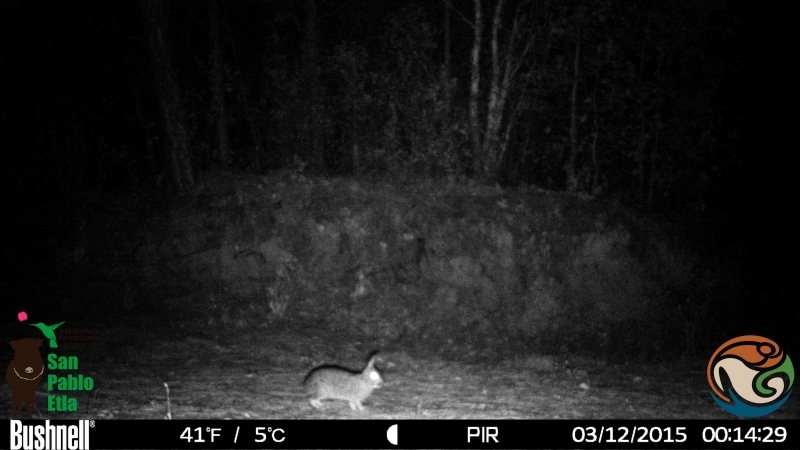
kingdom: Animalia
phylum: Chordata
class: Mammalia
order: Lagomorpha
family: Leporidae
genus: Sylvilagus
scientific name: Sylvilagus floridanus
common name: Eastern cottontail
